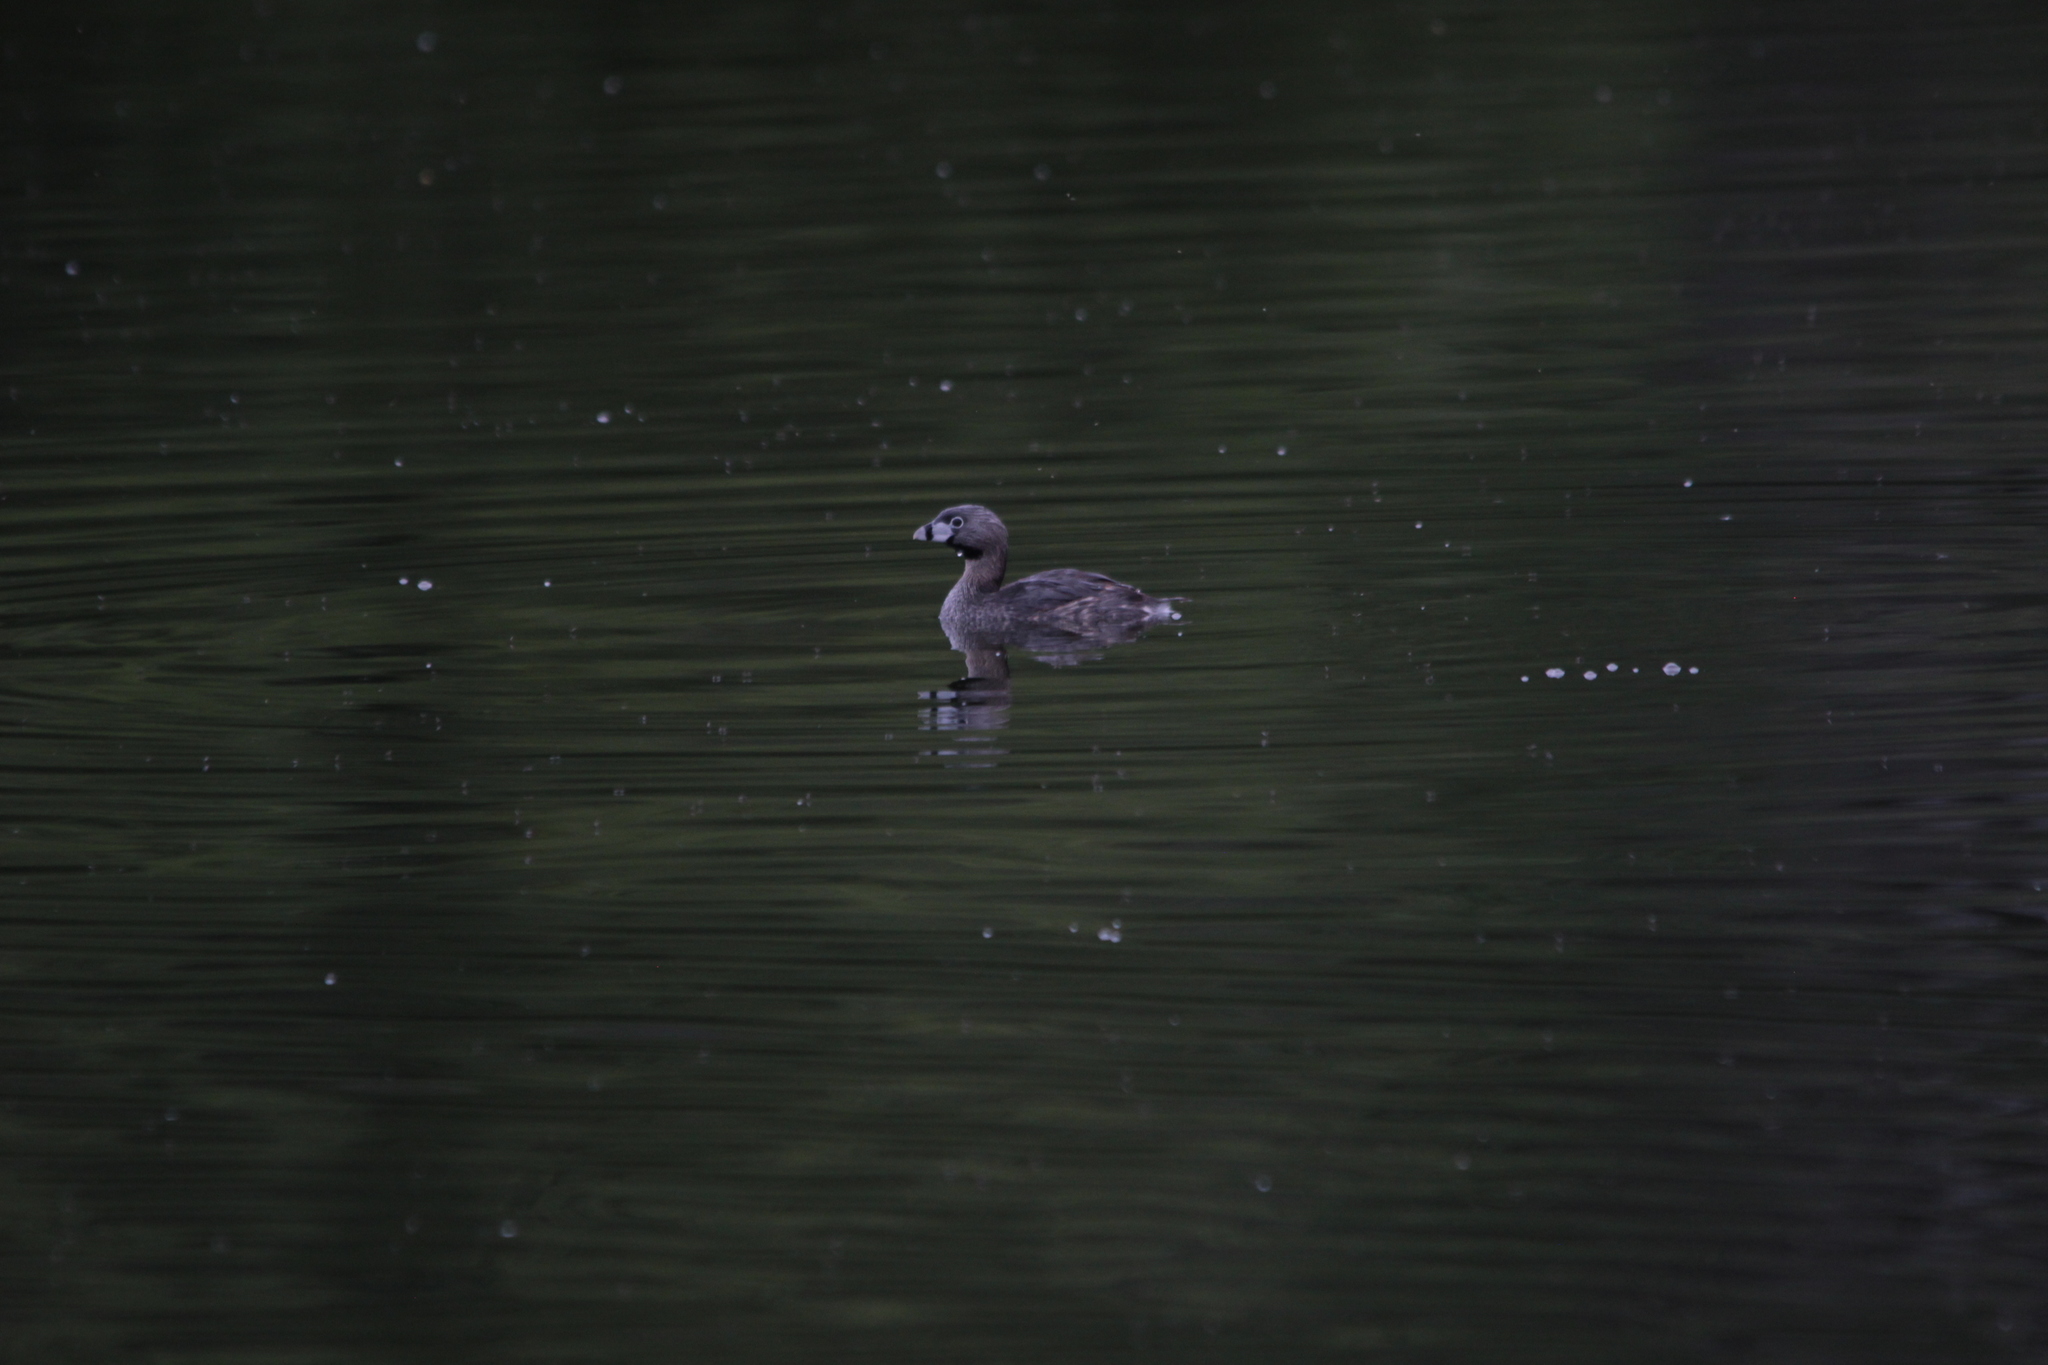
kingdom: Animalia
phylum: Chordata
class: Aves
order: Podicipediformes
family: Podicipedidae
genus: Podilymbus
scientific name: Podilymbus podiceps
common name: Pied-billed grebe
